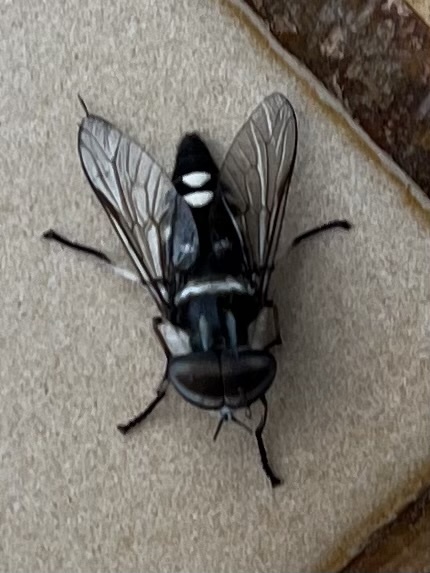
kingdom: Animalia
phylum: Arthropoda
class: Insecta
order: Diptera
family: Tabanidae
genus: Tabanus
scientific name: Tabanus insignis
